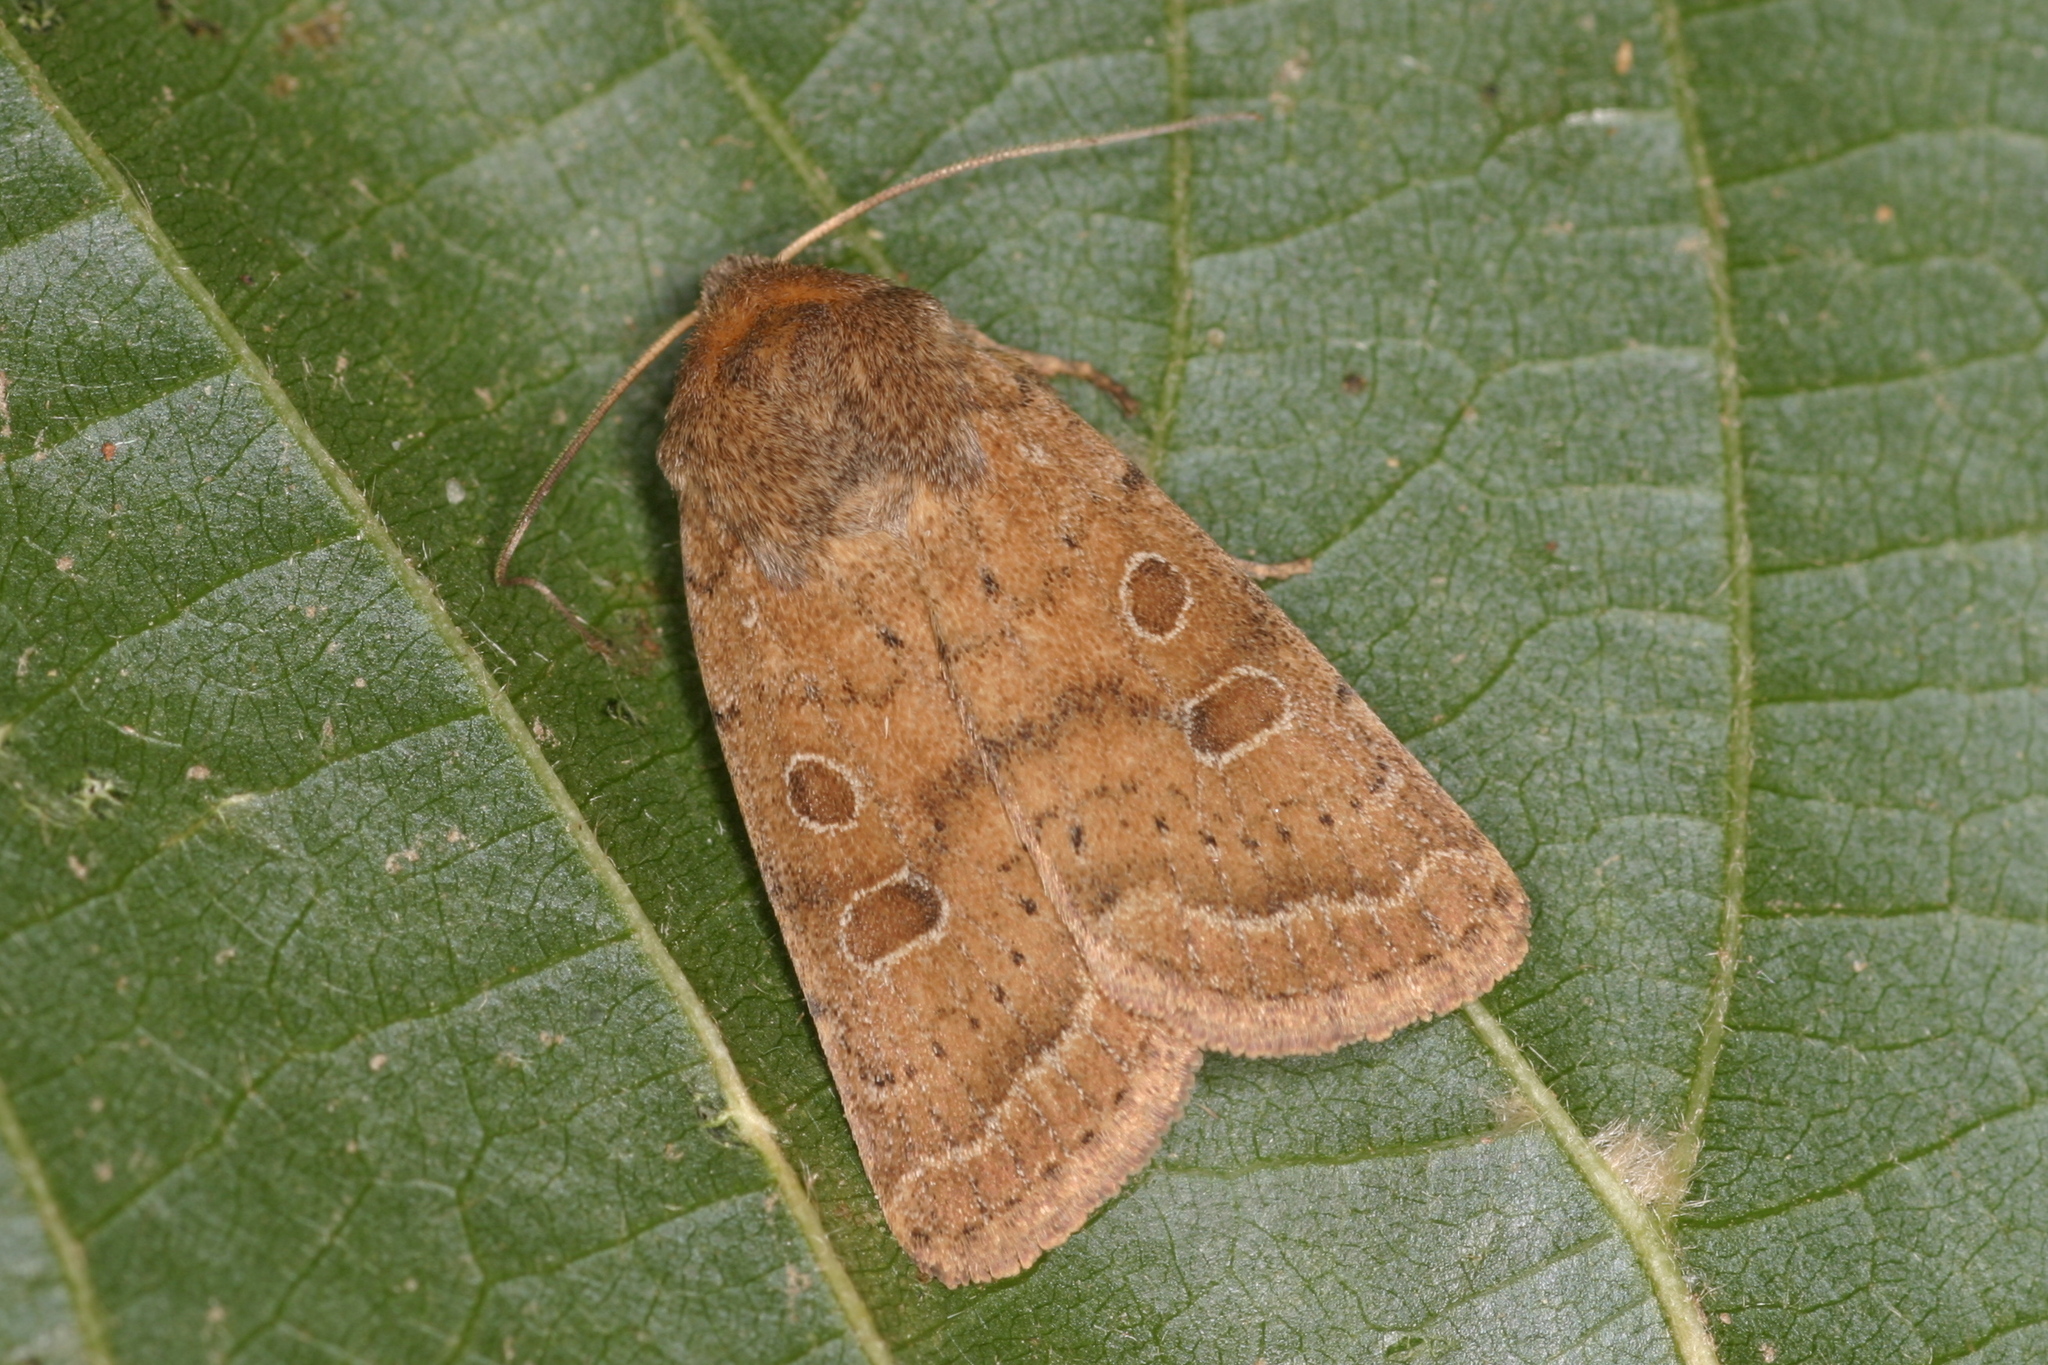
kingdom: Animalia
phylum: Arthropoda
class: Insecta
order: Lepidoptera
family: Noctuidae
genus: Hoplodrina
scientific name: Hoplodrina octogenaria
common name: Uncertain
